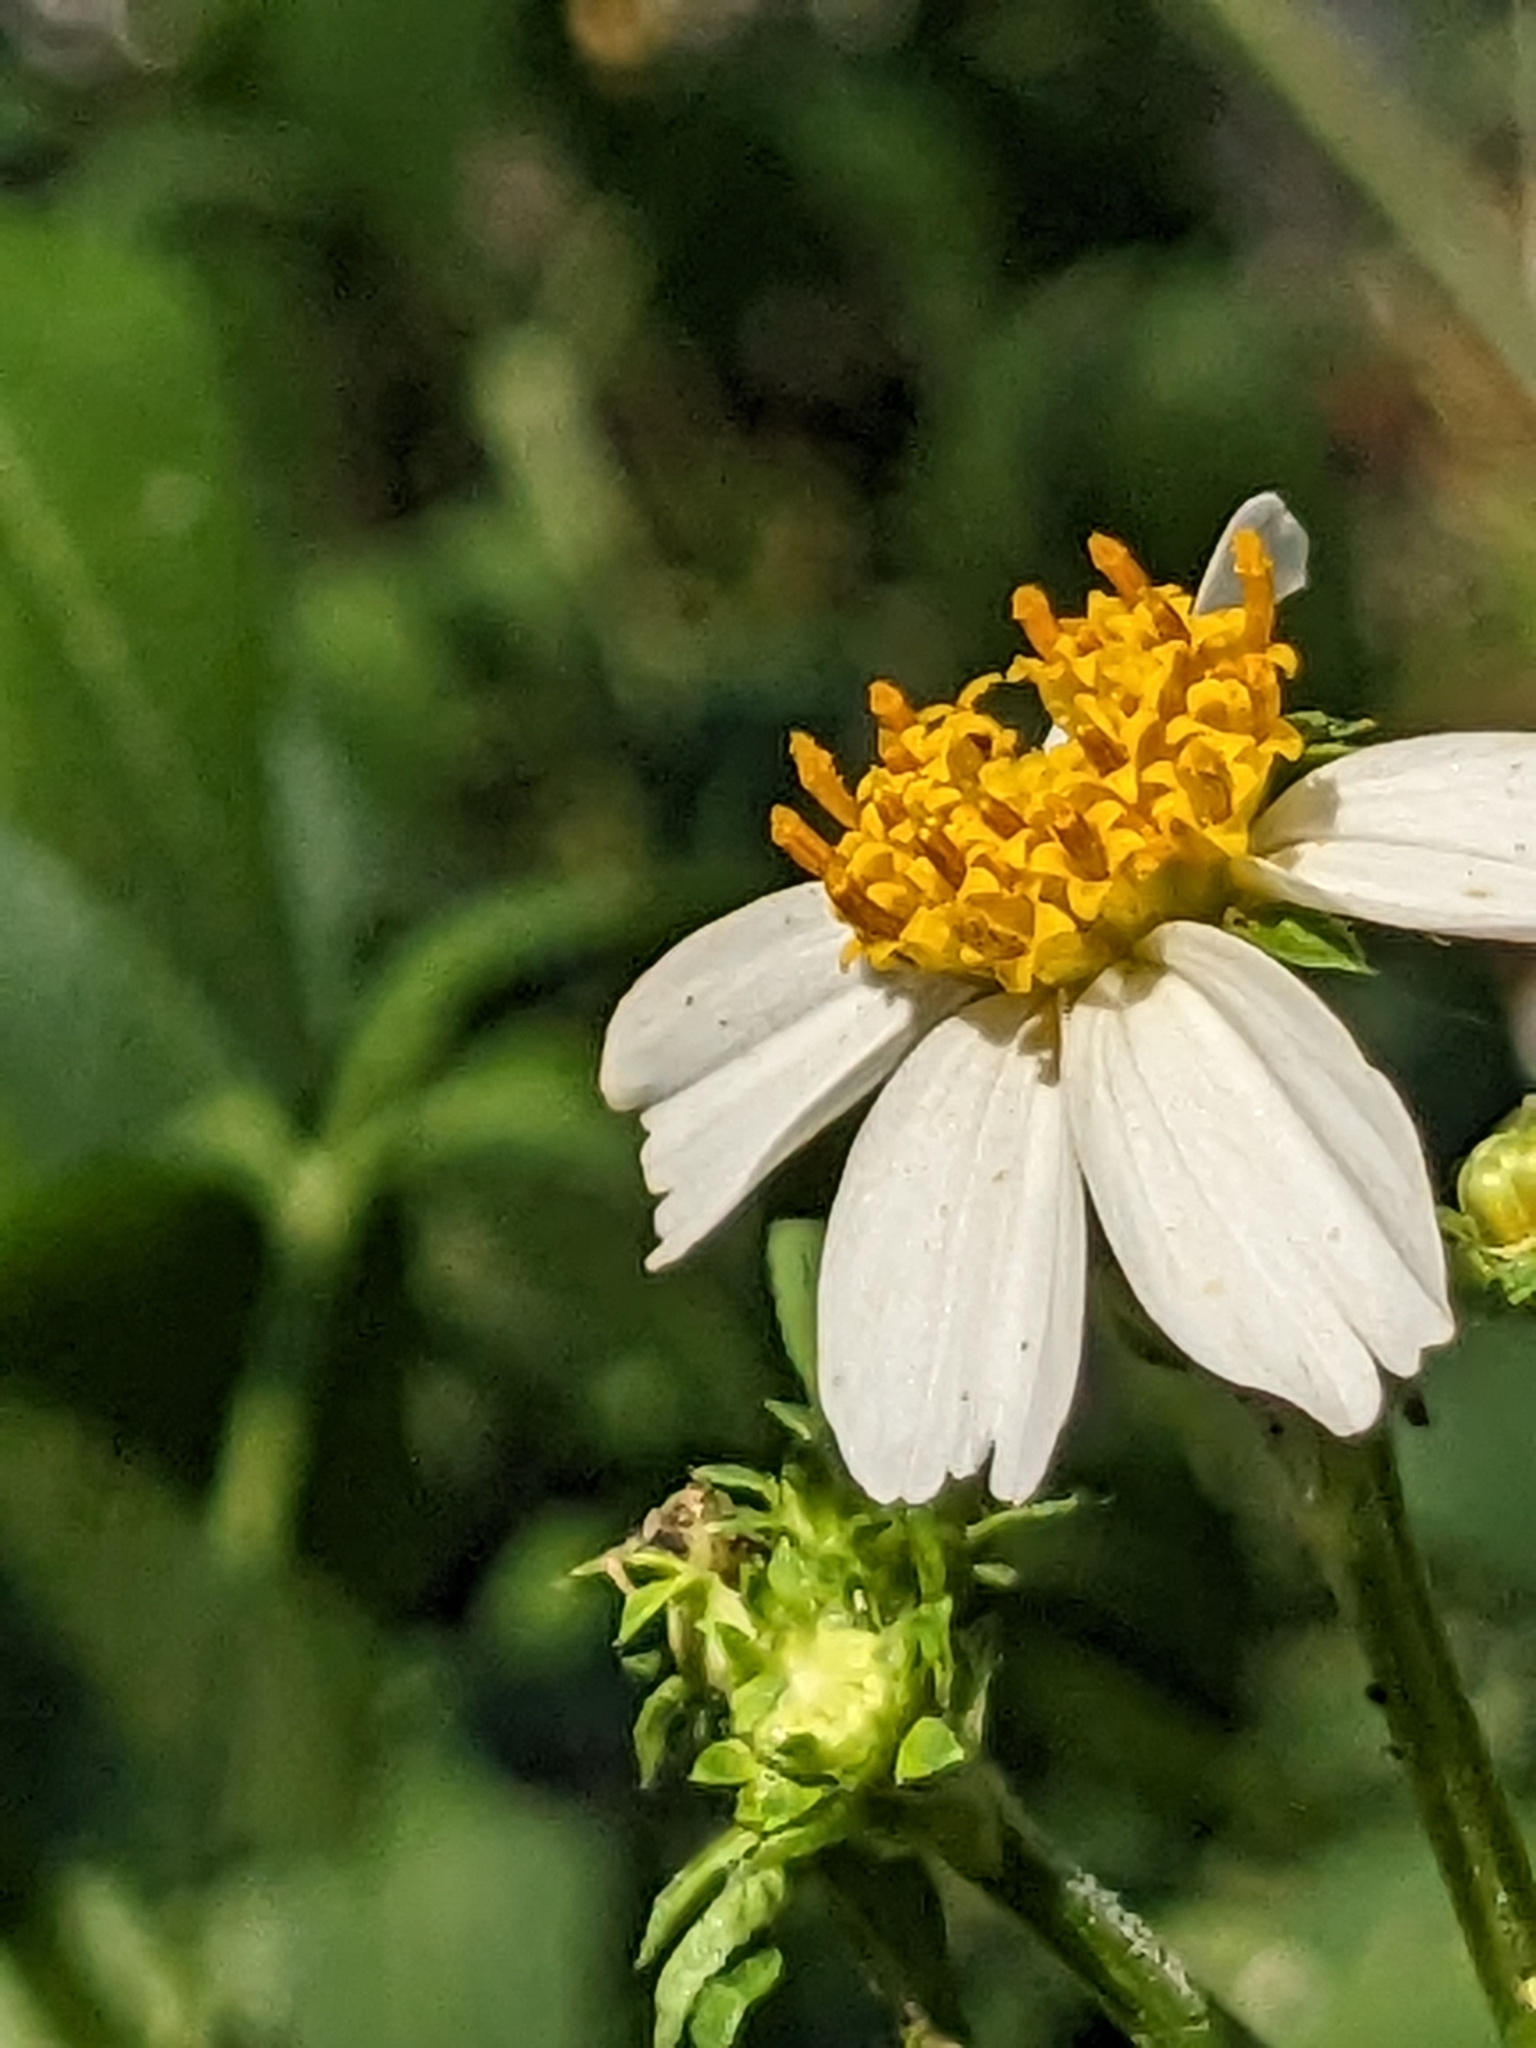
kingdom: Plantae
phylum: Tracheophyta
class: Magnoliopsida
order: Asterales
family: Asteraceae
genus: Bidens
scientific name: Bidens alba
